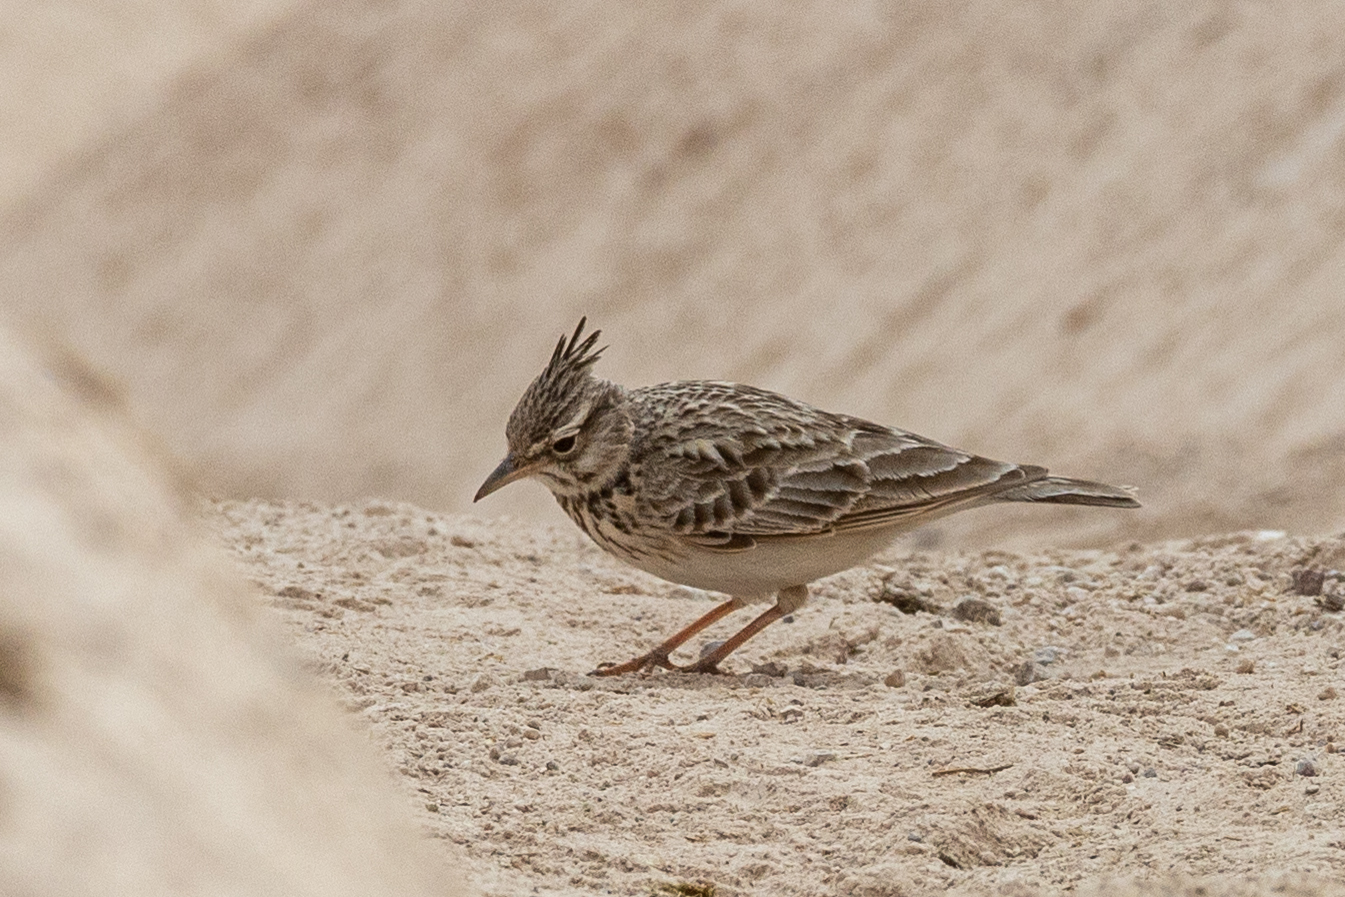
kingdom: Animalia
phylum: Chordata
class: Aves
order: Passeriformes
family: Alaudidae
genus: Galerida
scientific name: Galerida cristata
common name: Crested lark
